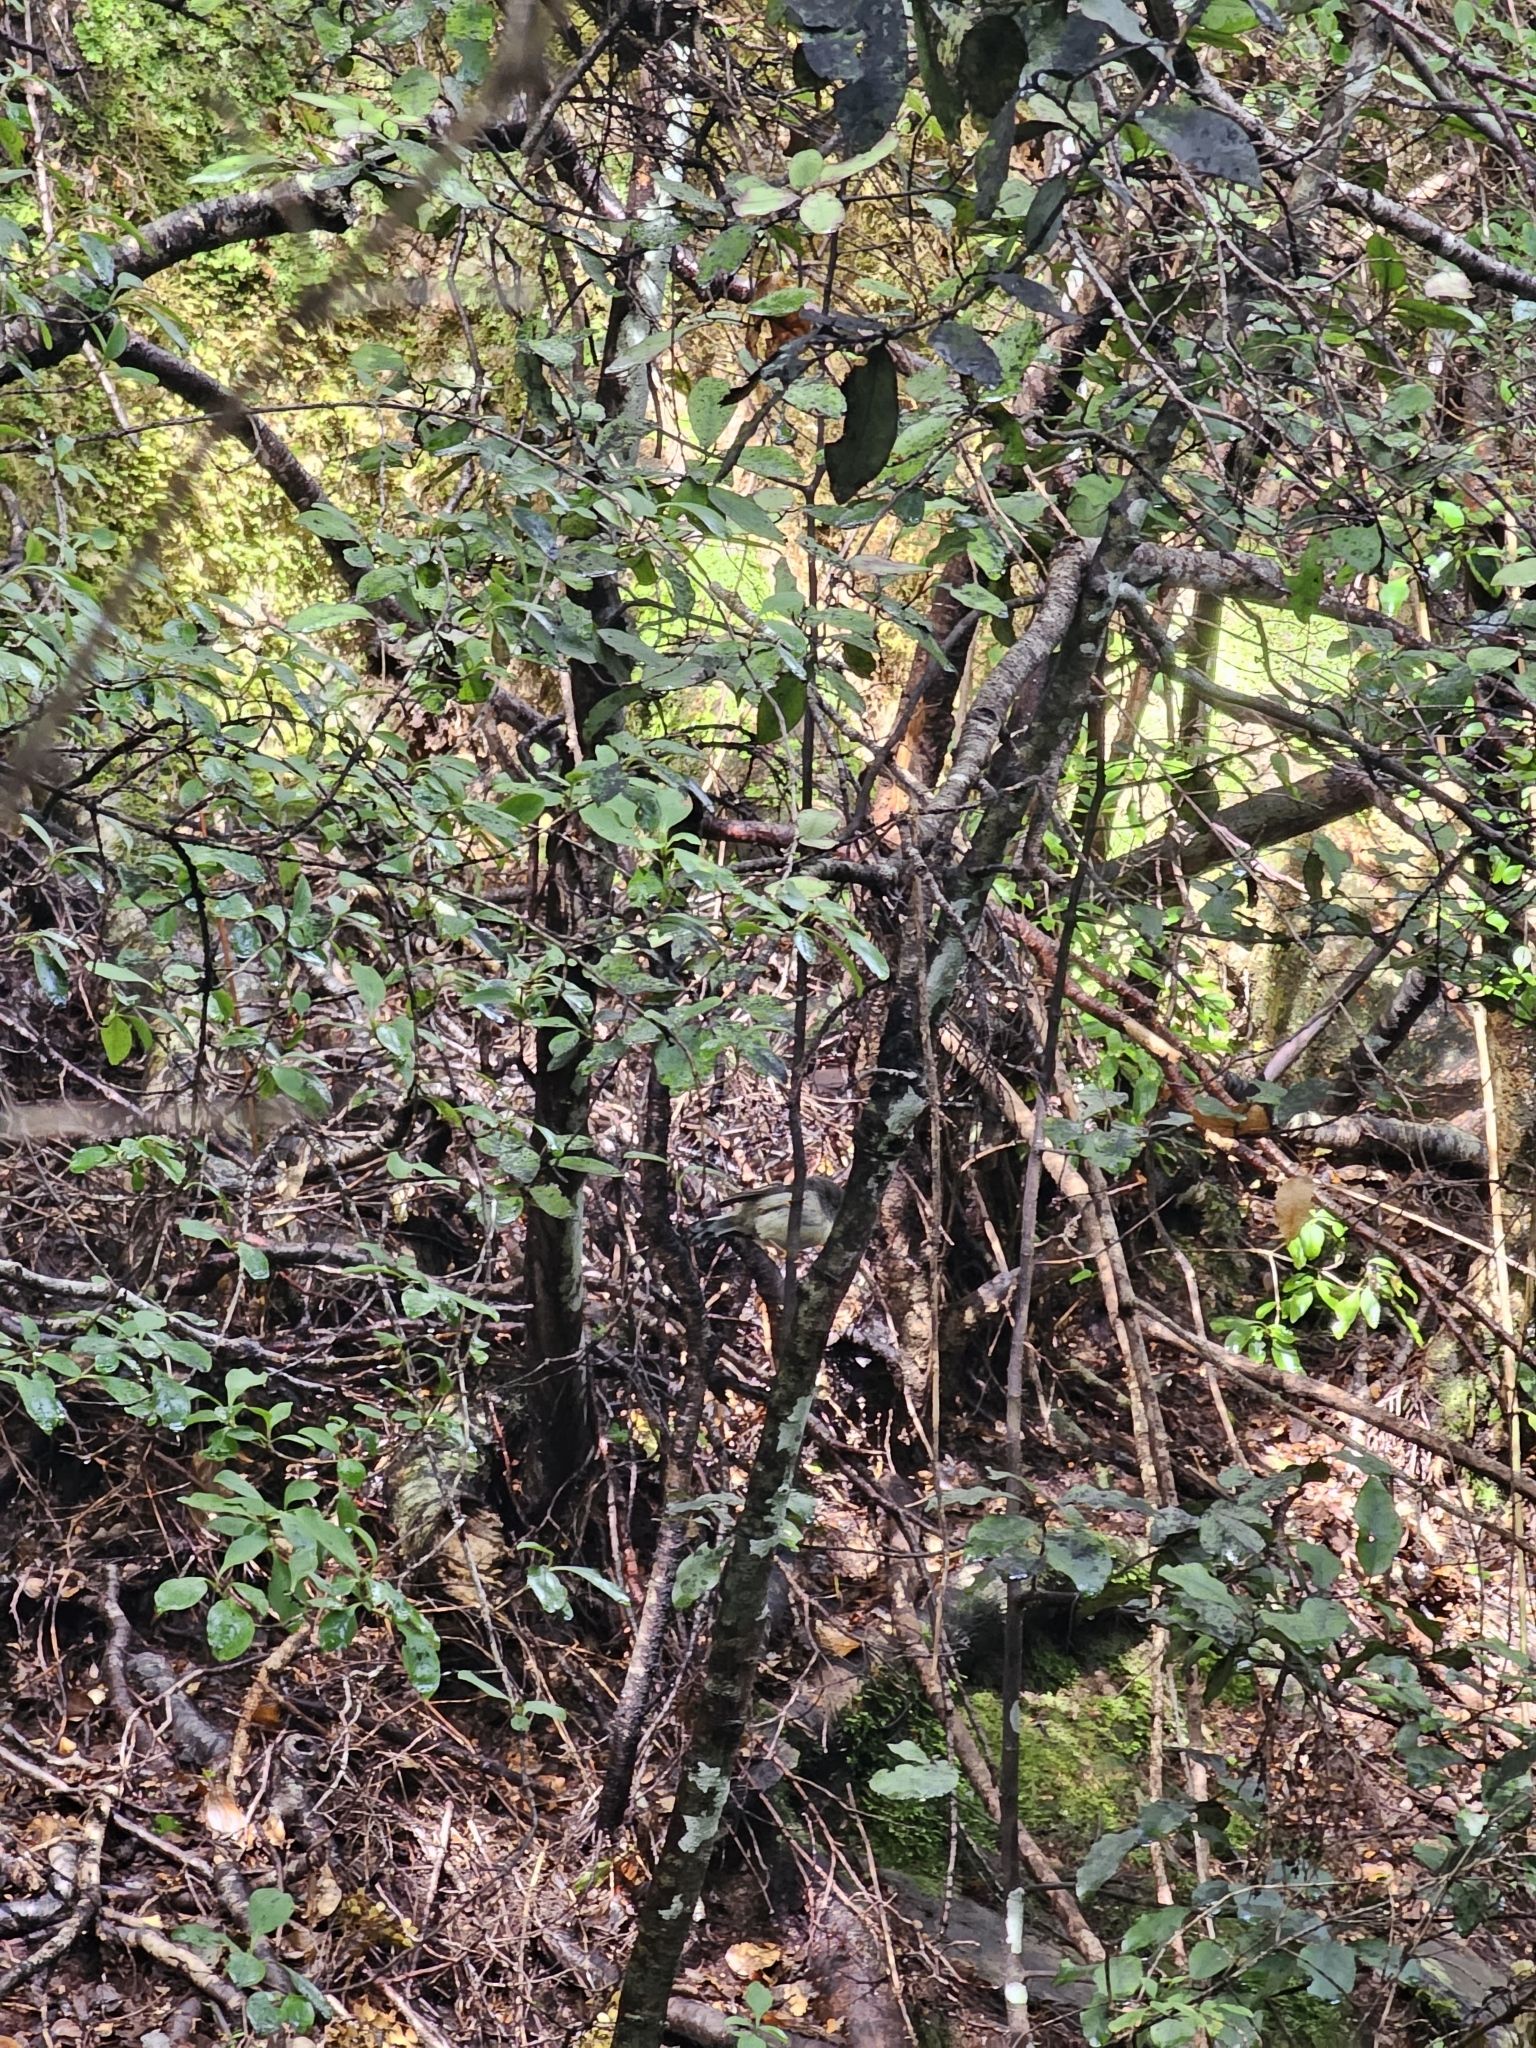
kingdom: Animalia
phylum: Chordata
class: Aves
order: Passeriformes
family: Petroicidae
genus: Petroica
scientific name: Petroica macrocephala
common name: Tomtit
